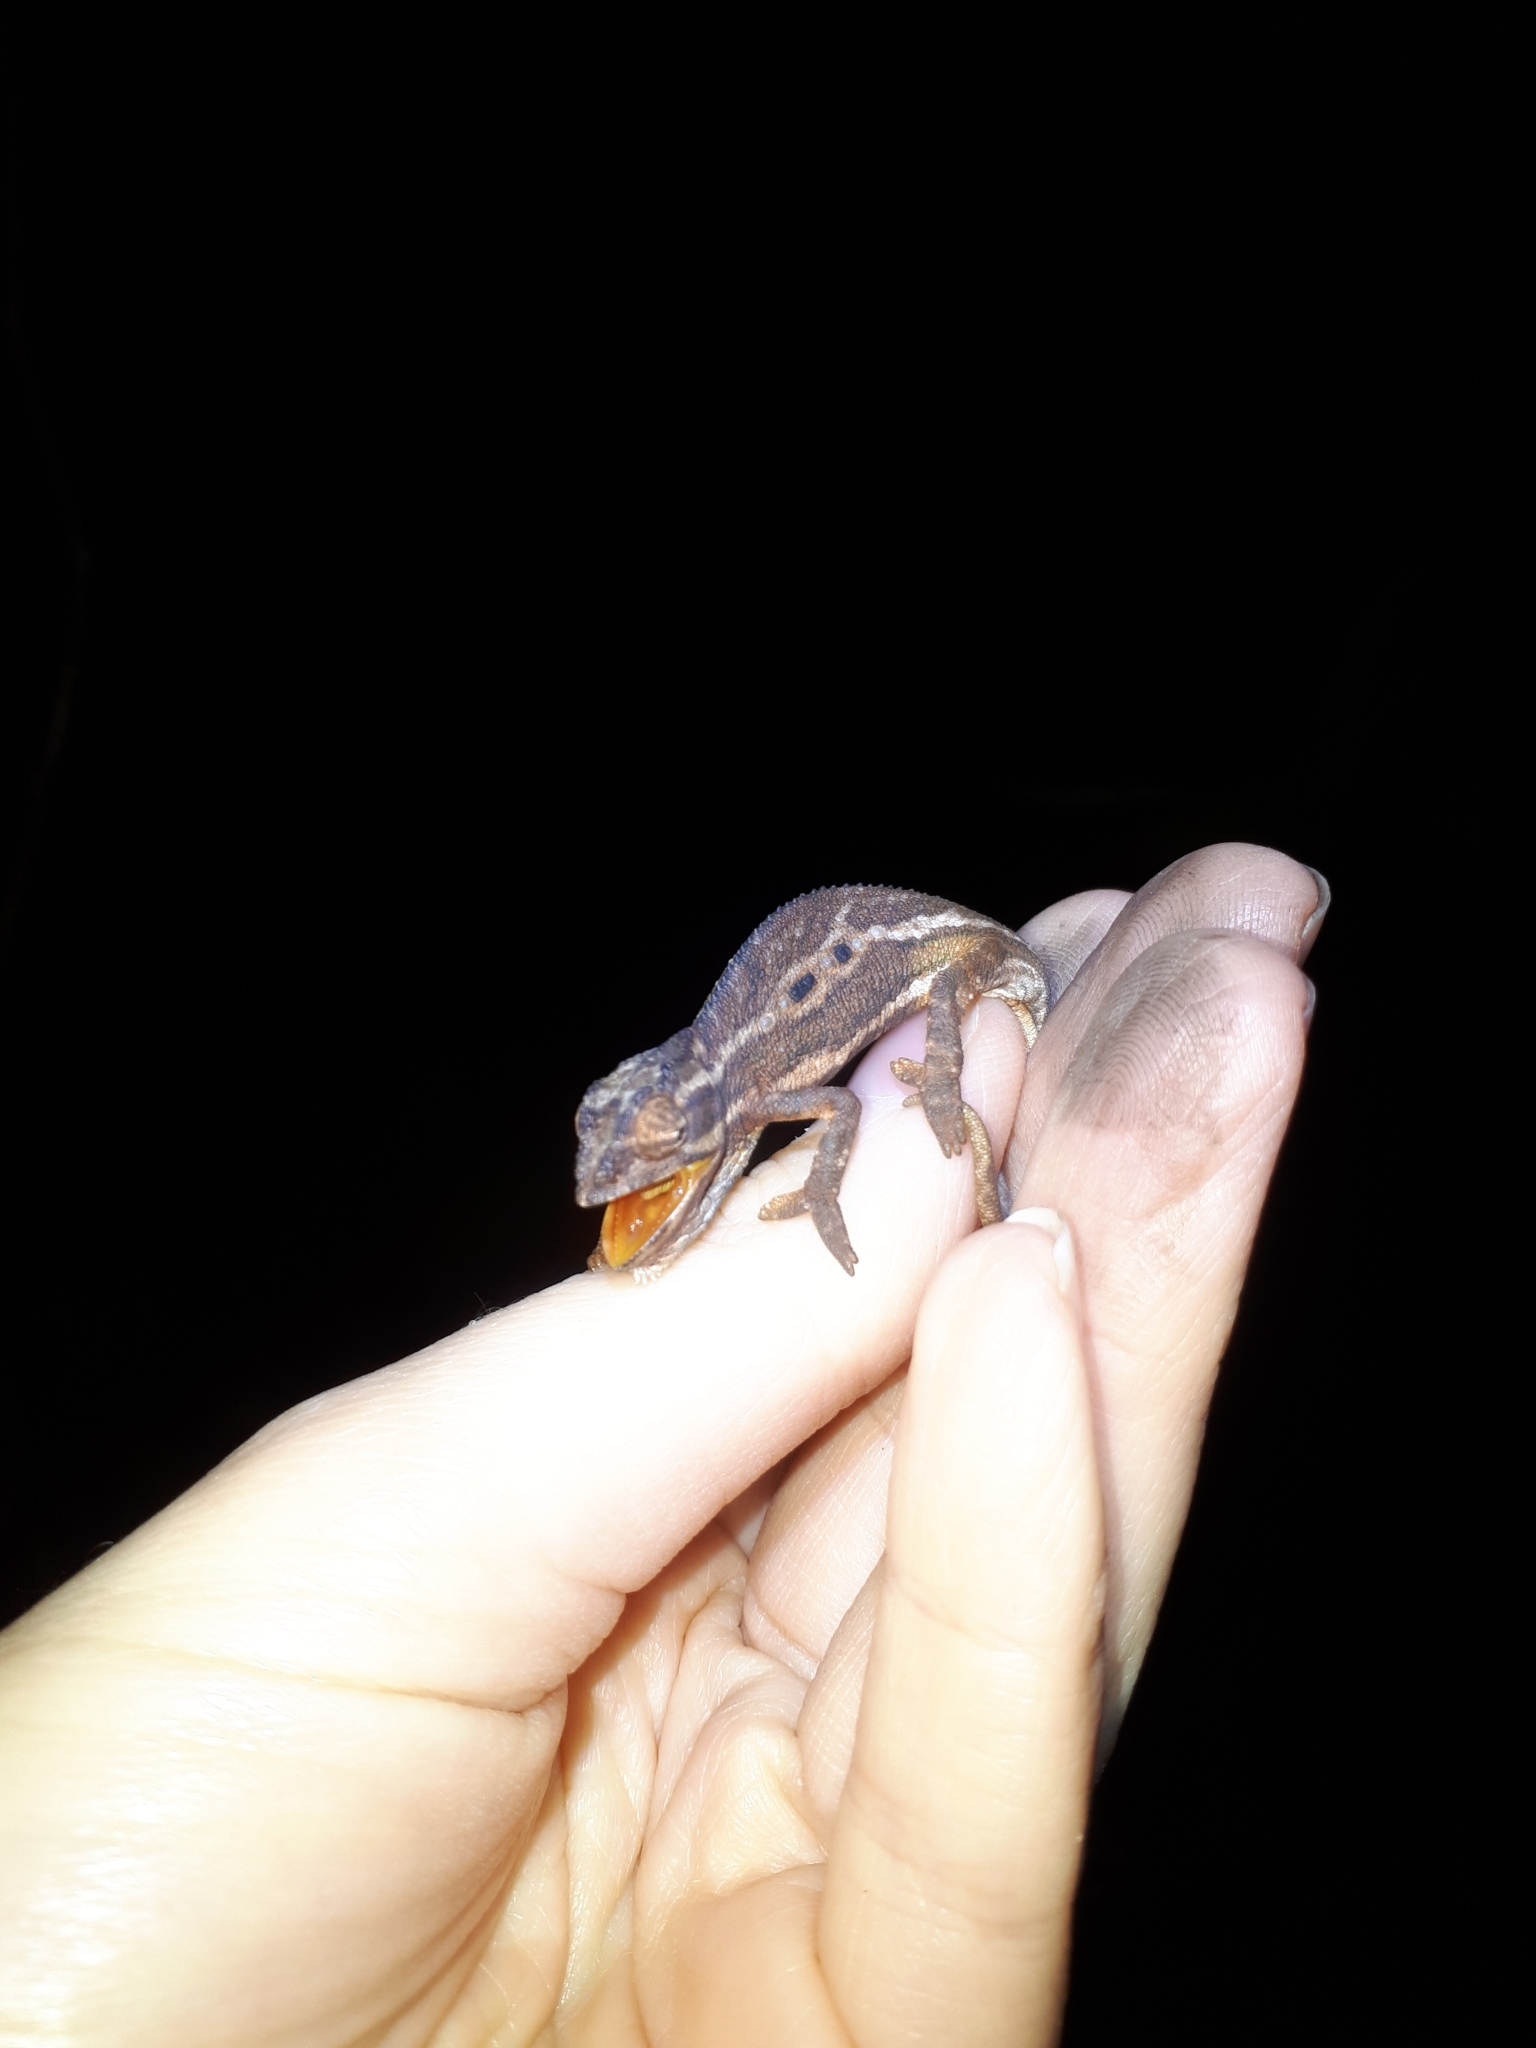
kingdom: Animalia
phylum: Chordata
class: Squamata
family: Chamaeleonidae
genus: Bradypodion
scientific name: Bradypodion pumilum
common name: Cape dwarf chameleon
